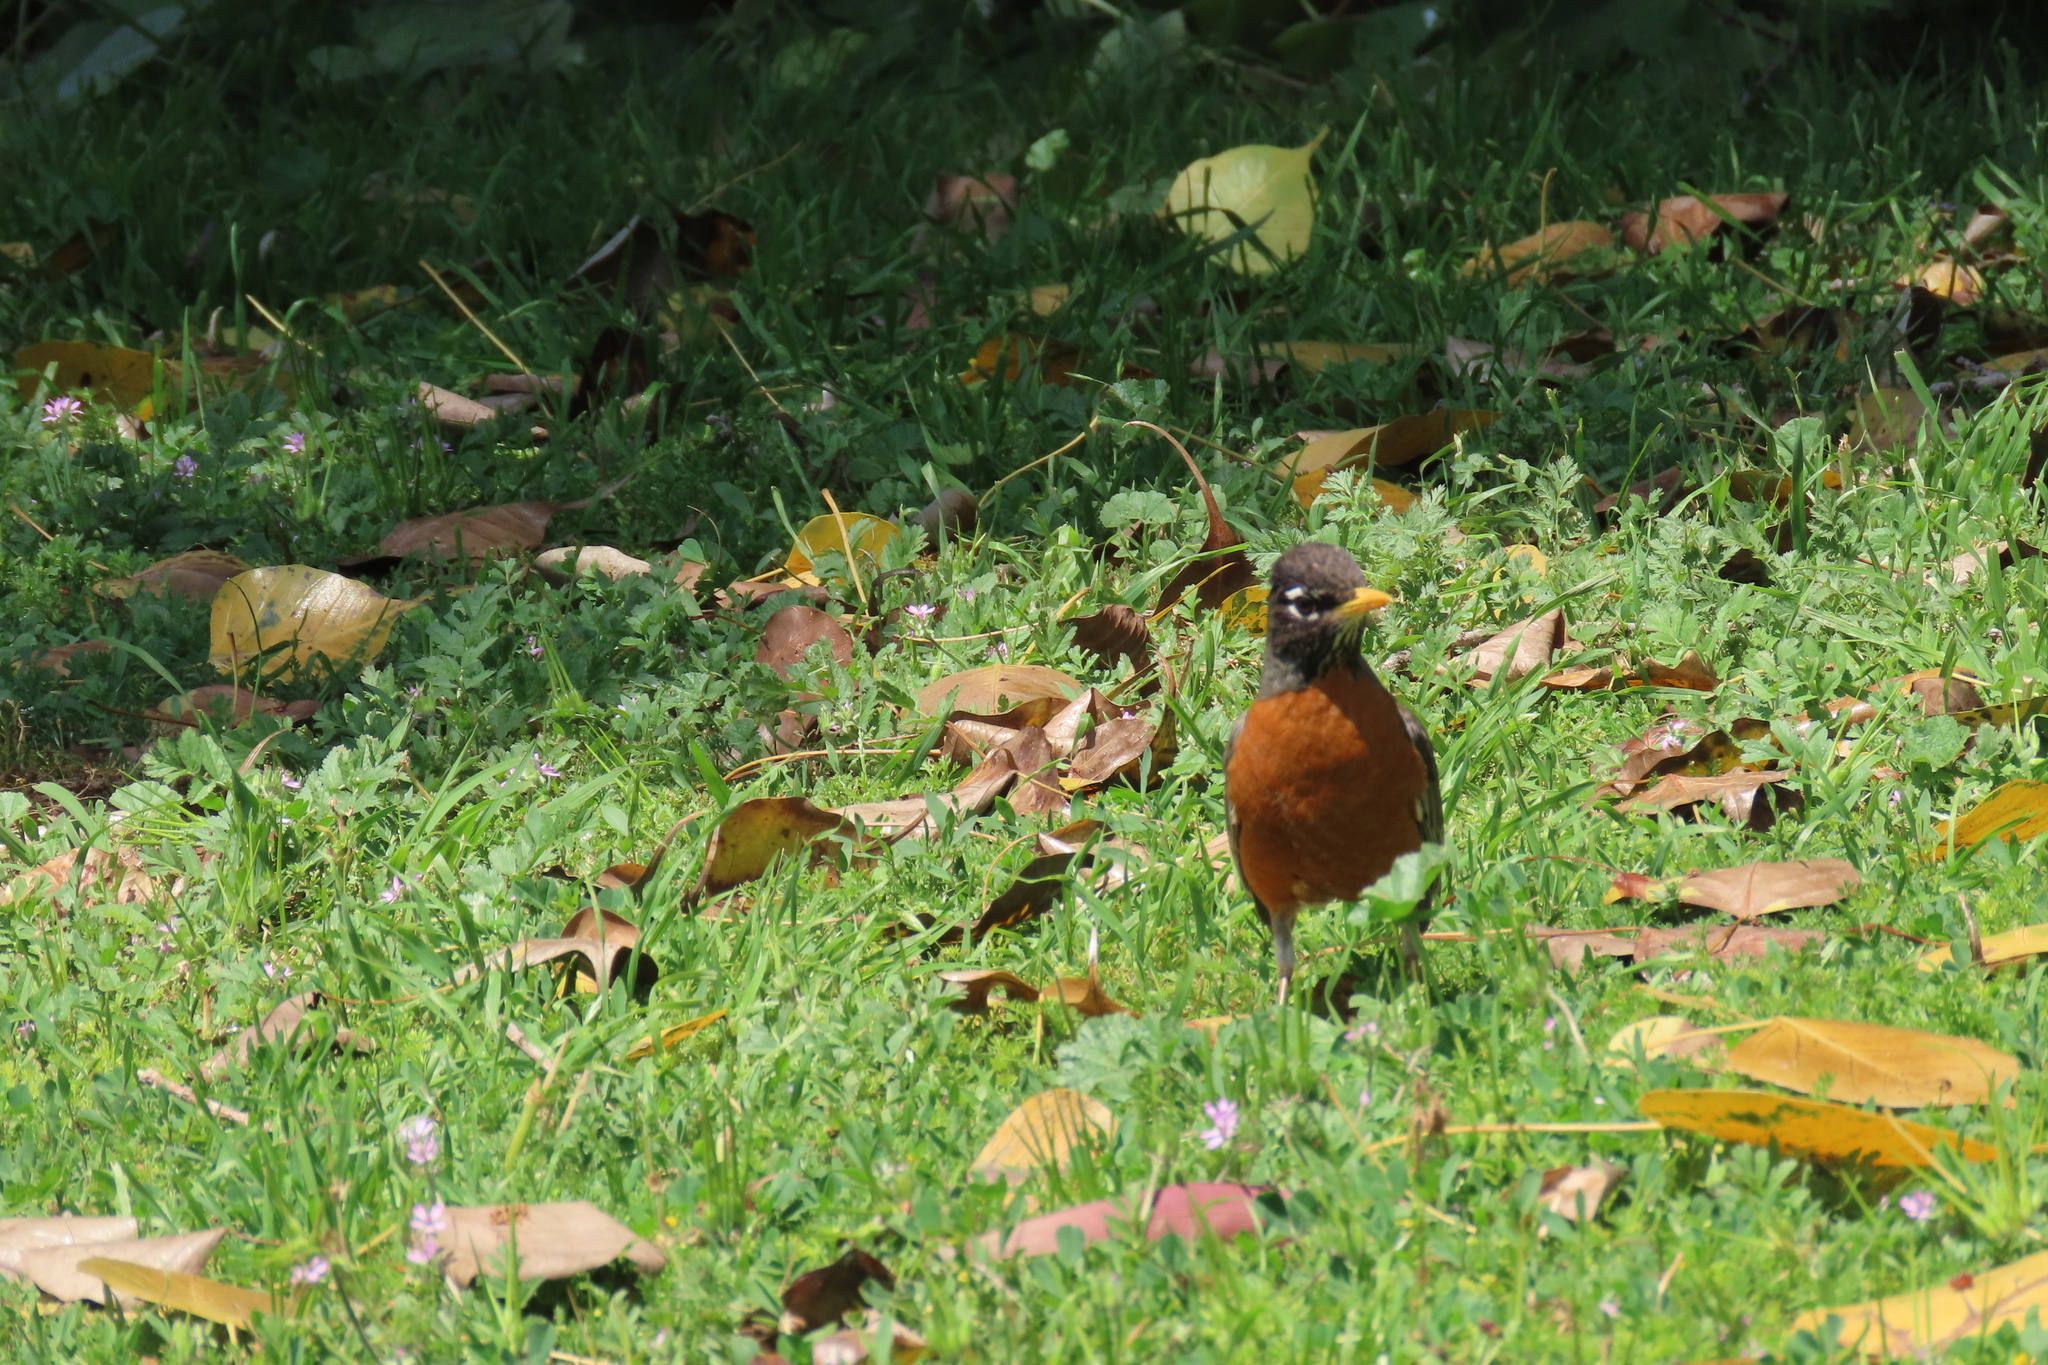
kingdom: Animalia
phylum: Chordata
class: Aves
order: Passeriformes
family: Turdidae
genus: Turdus
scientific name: Turdus migratorius
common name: American robin
